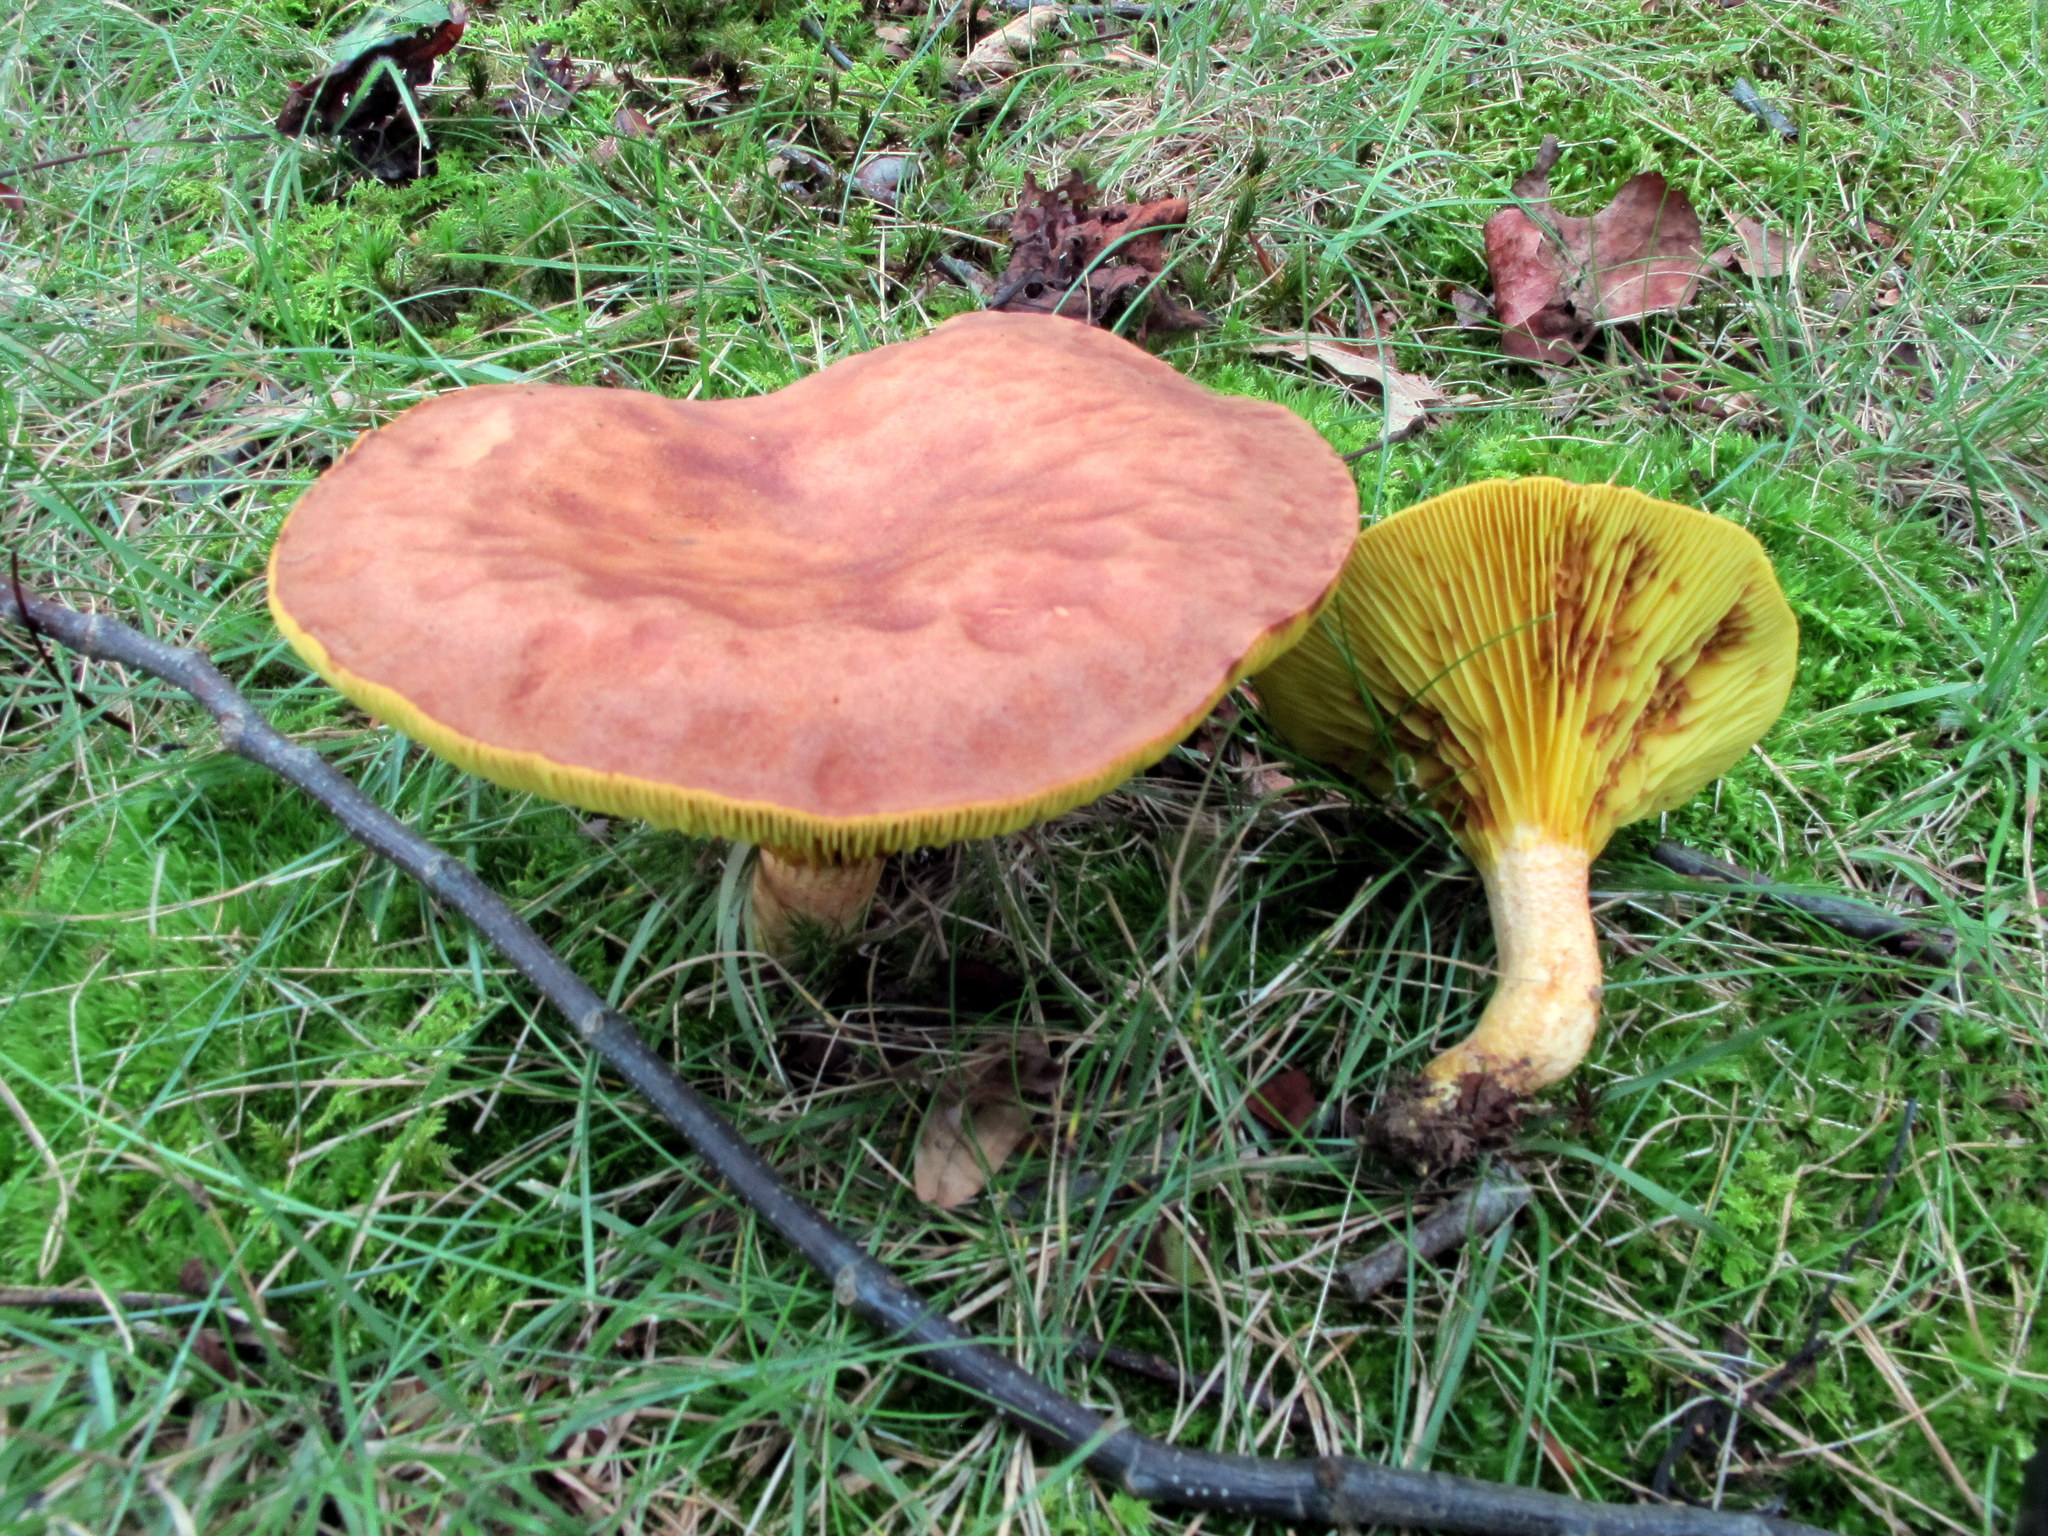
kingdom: Fungi
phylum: Basidiomycota
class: Agaricomycetes
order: Boletales
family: Boletaceae
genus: Phylloporus
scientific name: Phylloporus rhodoxanthus
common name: Golden gilled bolete
